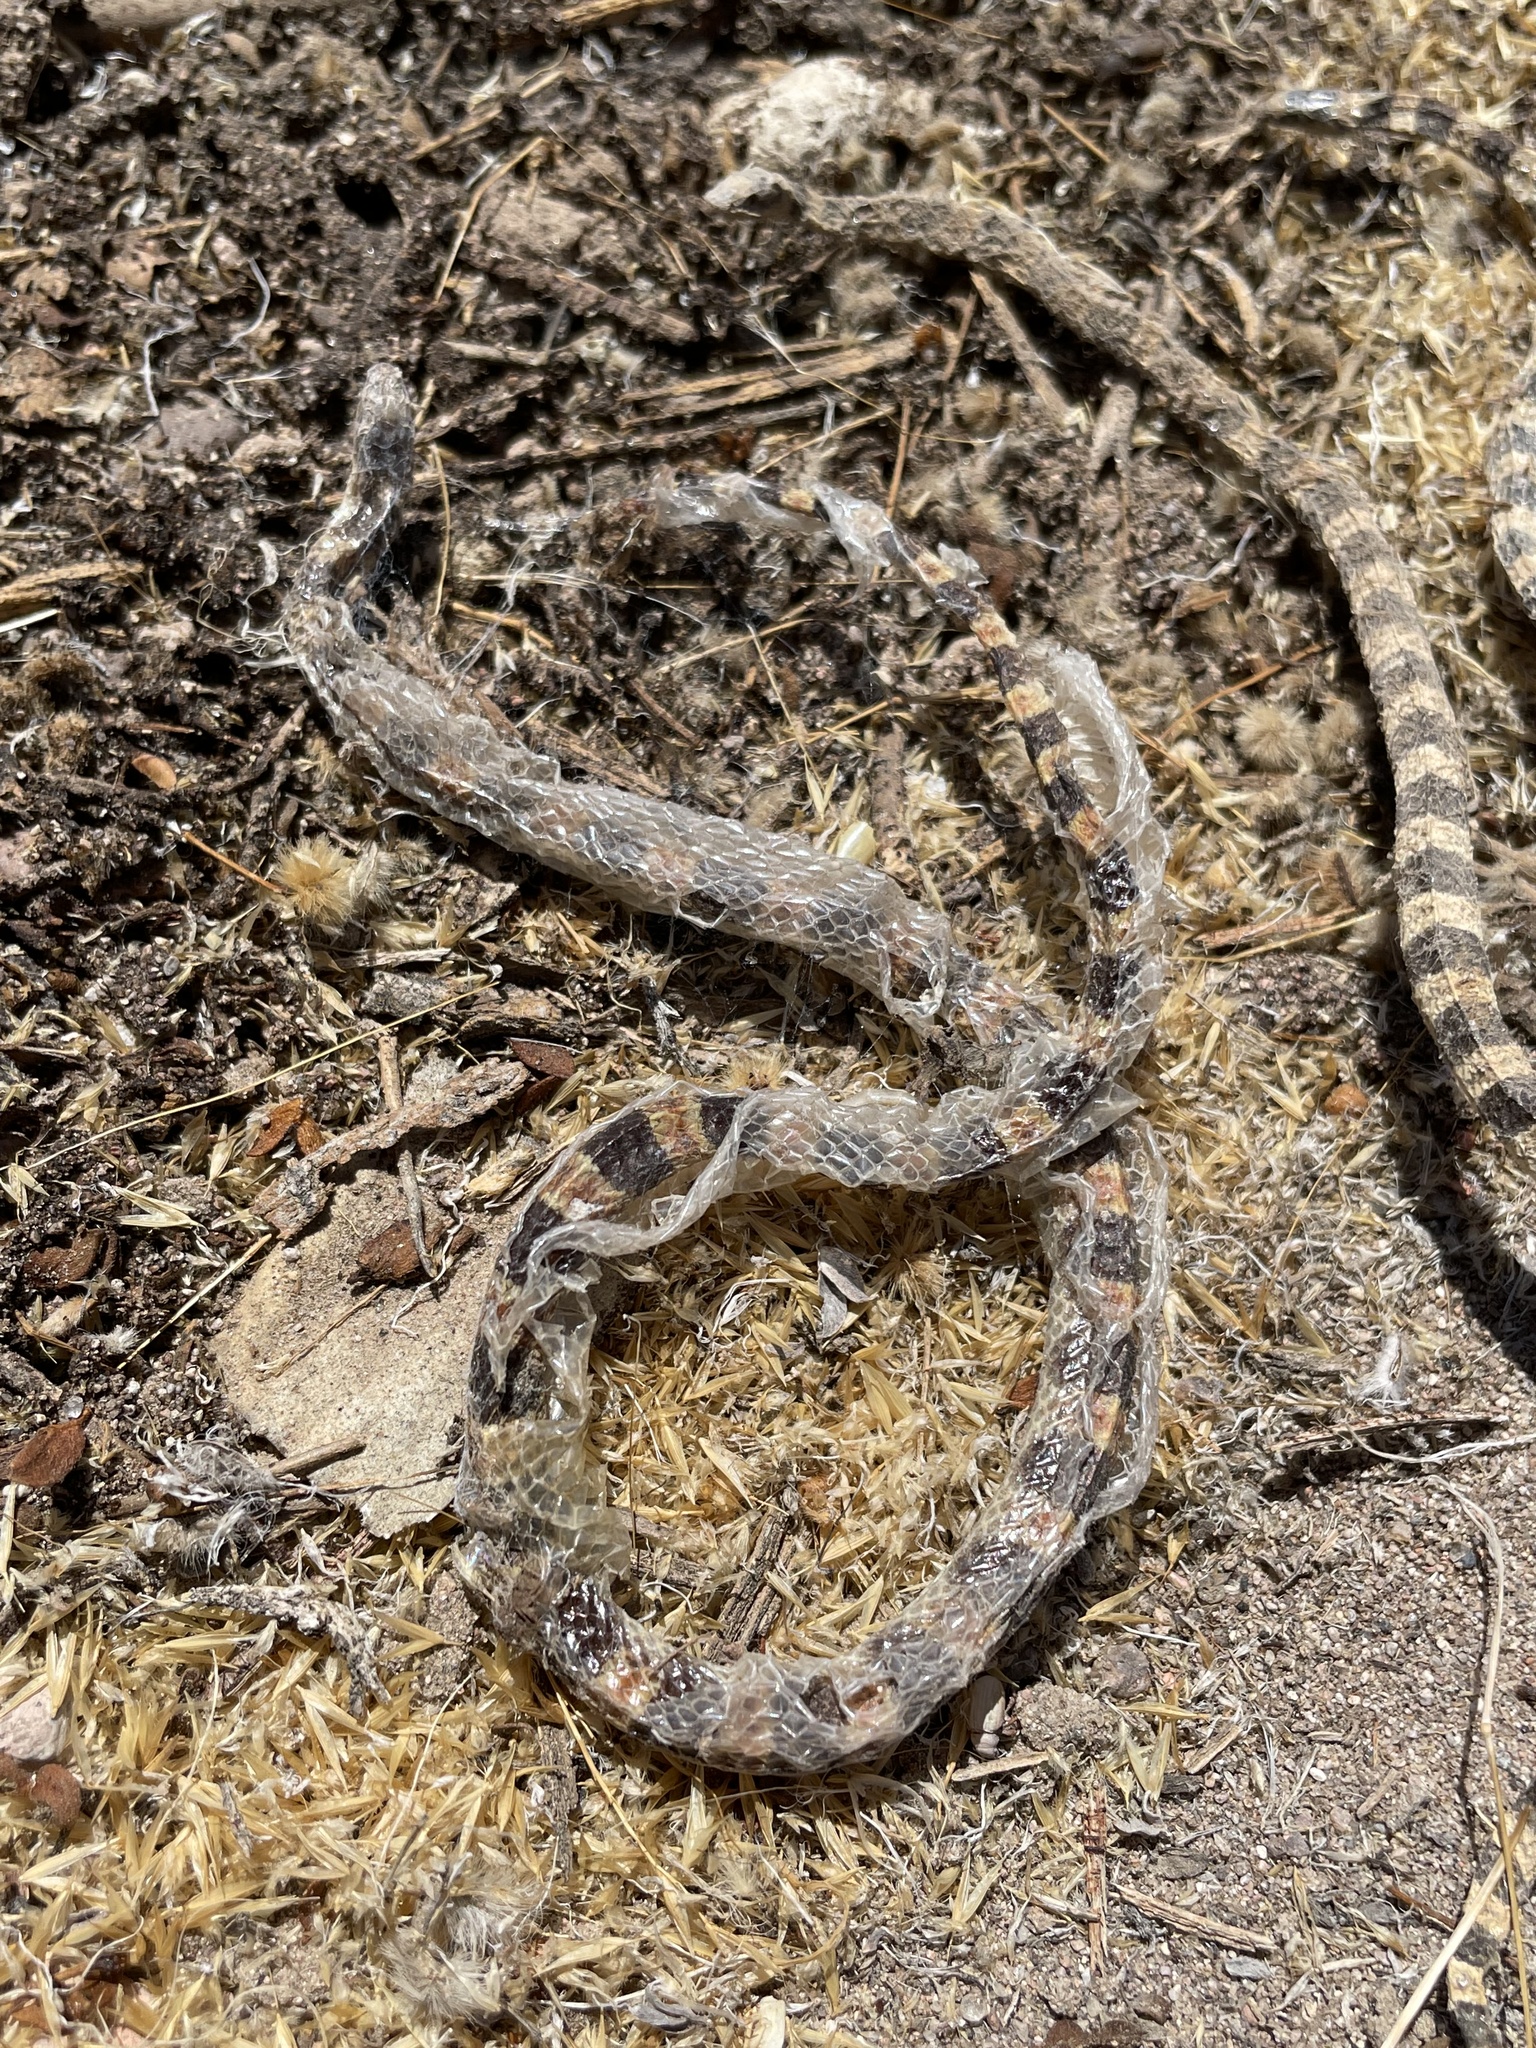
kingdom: Animalia
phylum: Chordata
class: Squamata
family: Colubridae
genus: Sonora
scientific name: Sonora occipitalis
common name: Western shovelnose snake
